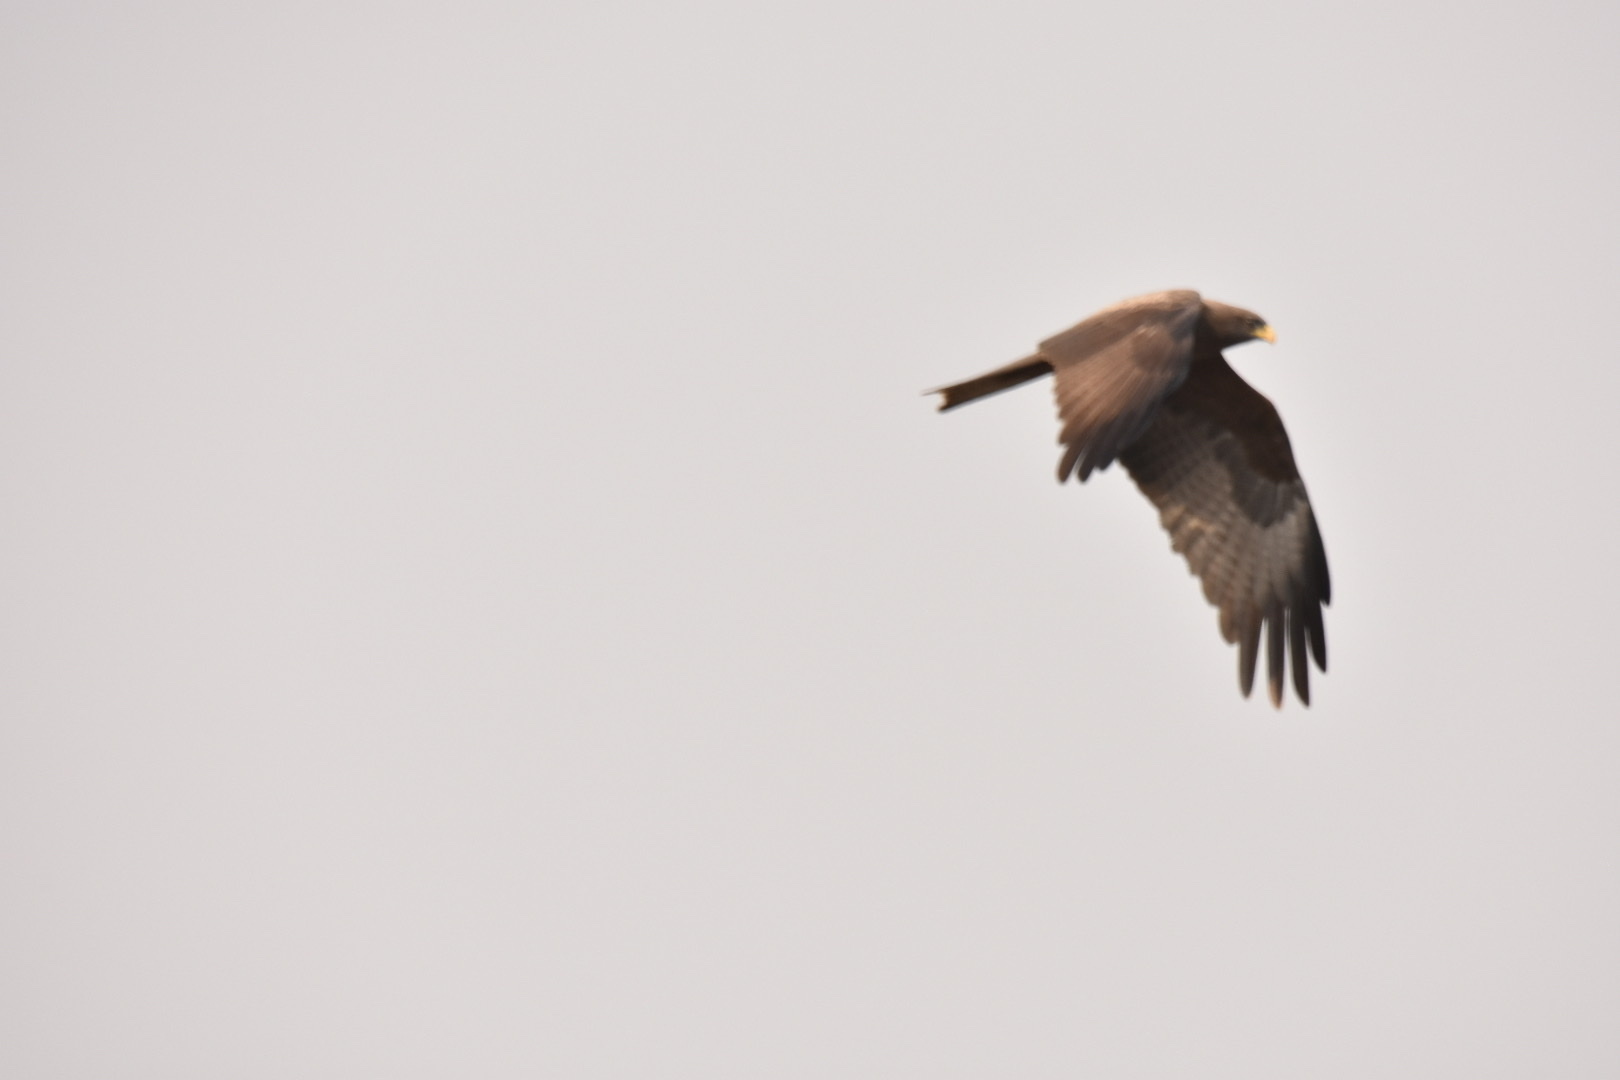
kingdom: Animalia
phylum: Chordata
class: Aves
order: Accipitriformes
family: Accipitridae
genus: Milvus
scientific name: Milvus migrans
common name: Black kite
